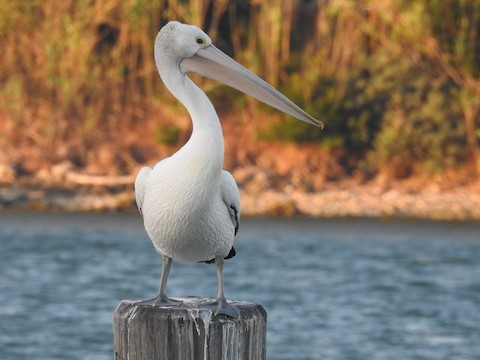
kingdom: Animalia
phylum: Chordata
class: Aves
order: Pelecaniformes
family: Pelecanidae
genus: Pelecanus
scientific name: Pelecanus conspicillatus
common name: Australian pelican
